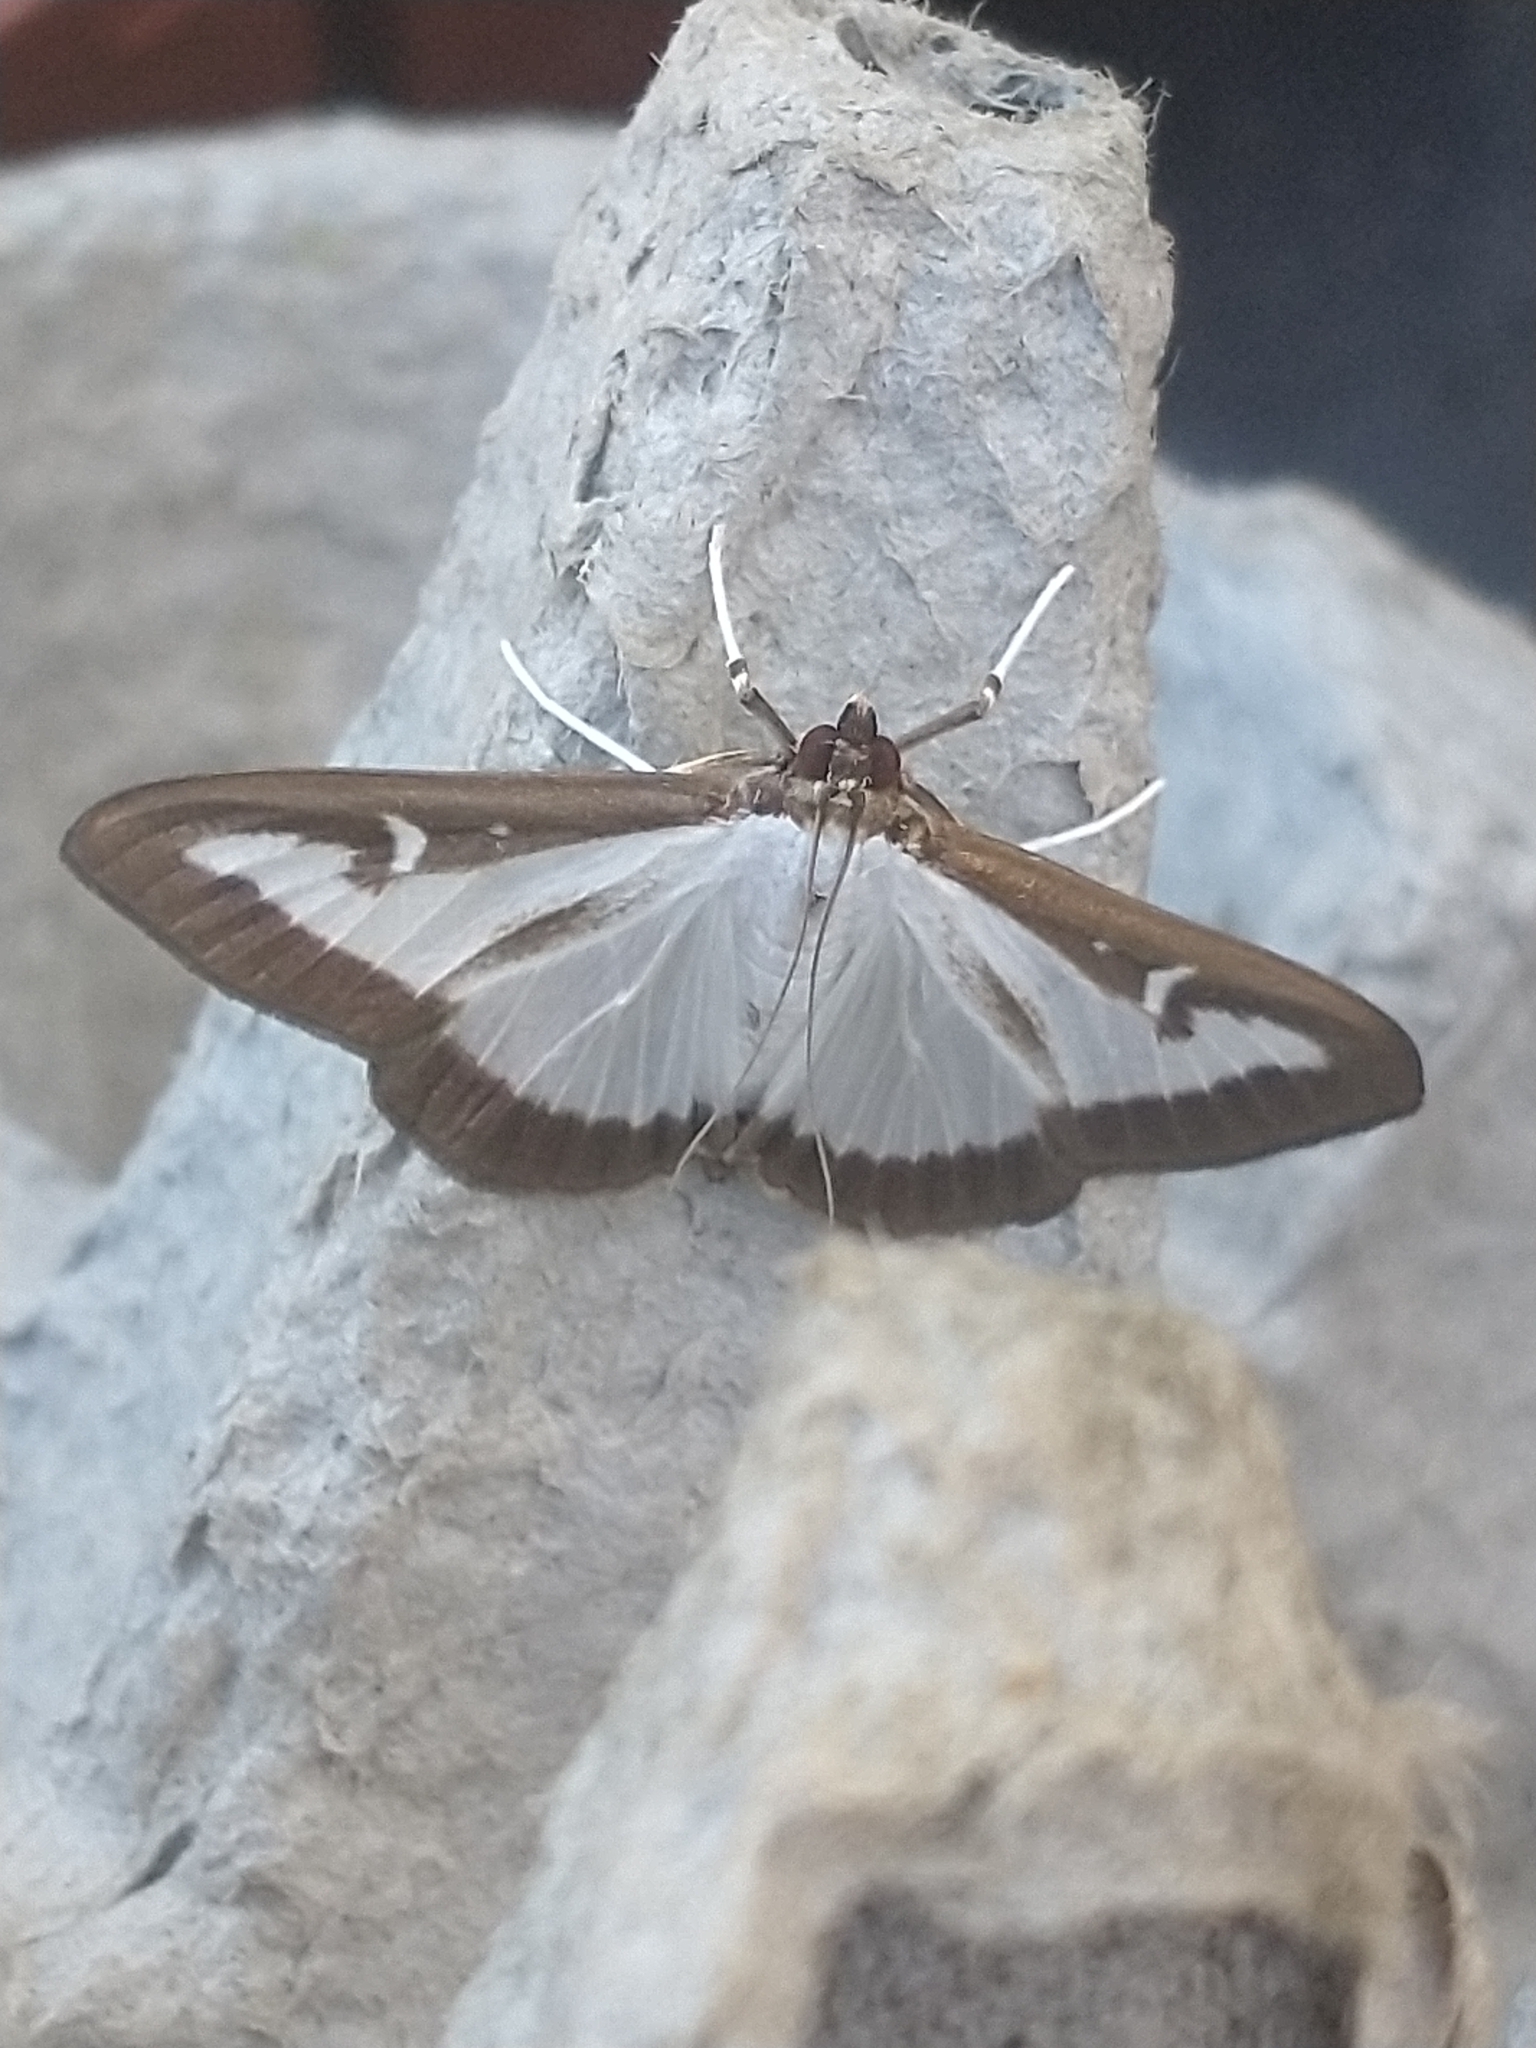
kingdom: Animalia
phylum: Arthropoda
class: Insecta
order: Lepidoptera
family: Crambidae
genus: Cydalima
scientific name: Cydalima perspectalis
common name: Box tree moth
